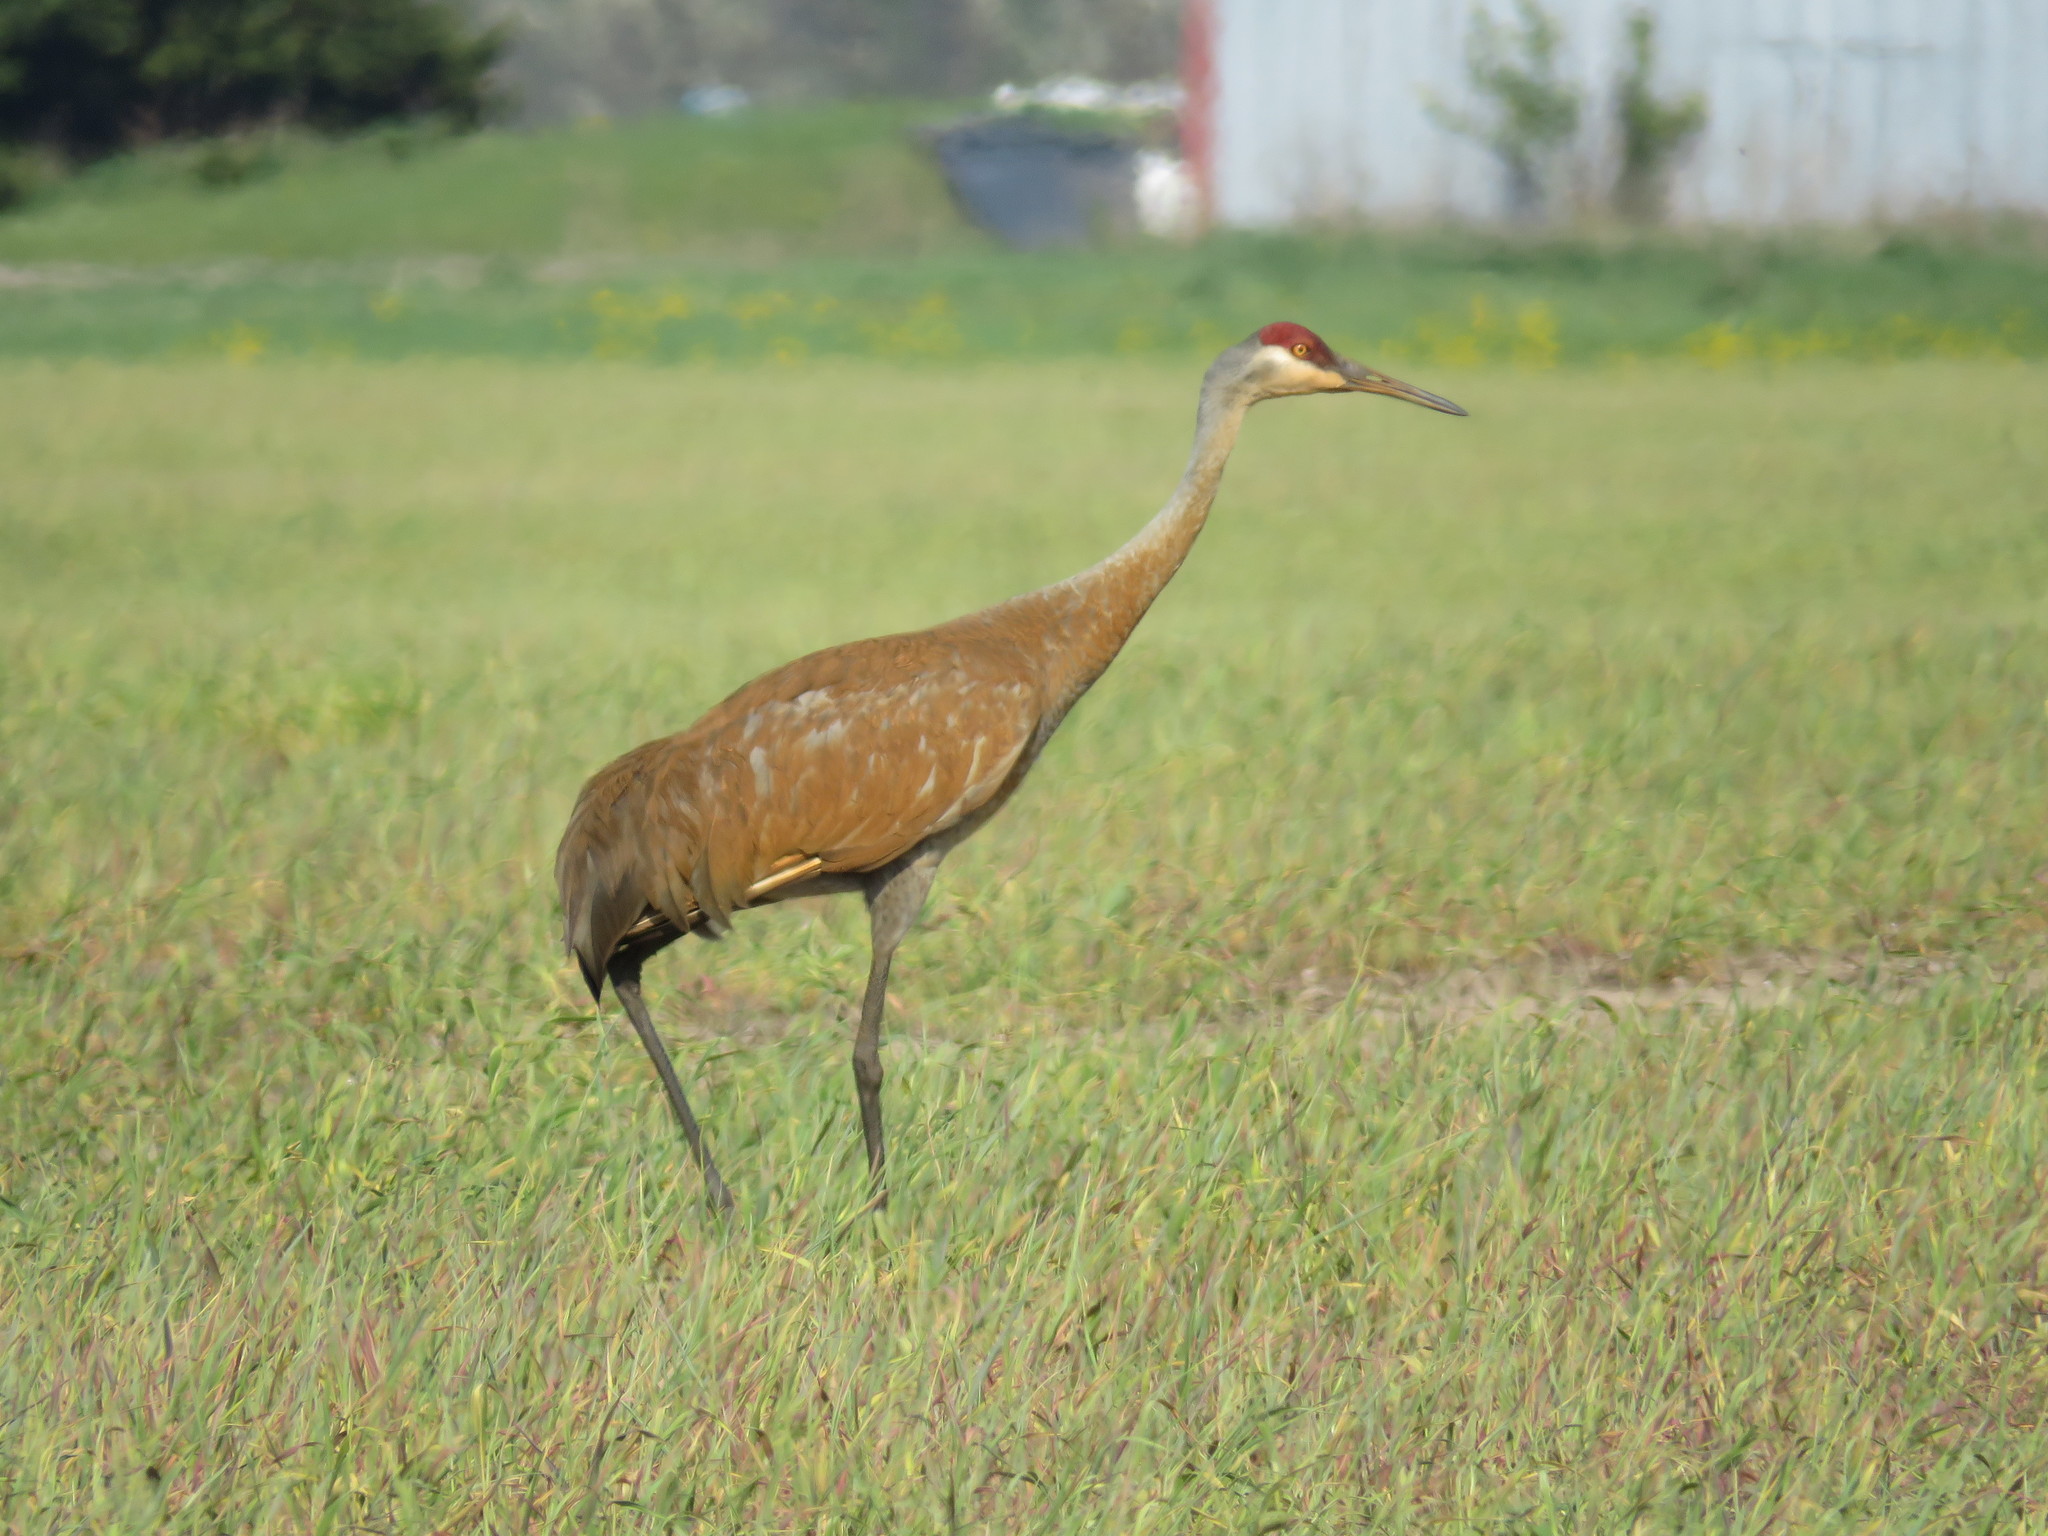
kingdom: Animalia
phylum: Chordata
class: Aves
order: Gruiformes
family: Gruidae
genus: Grus
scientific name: Grus canadensis
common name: Sandhill crane
